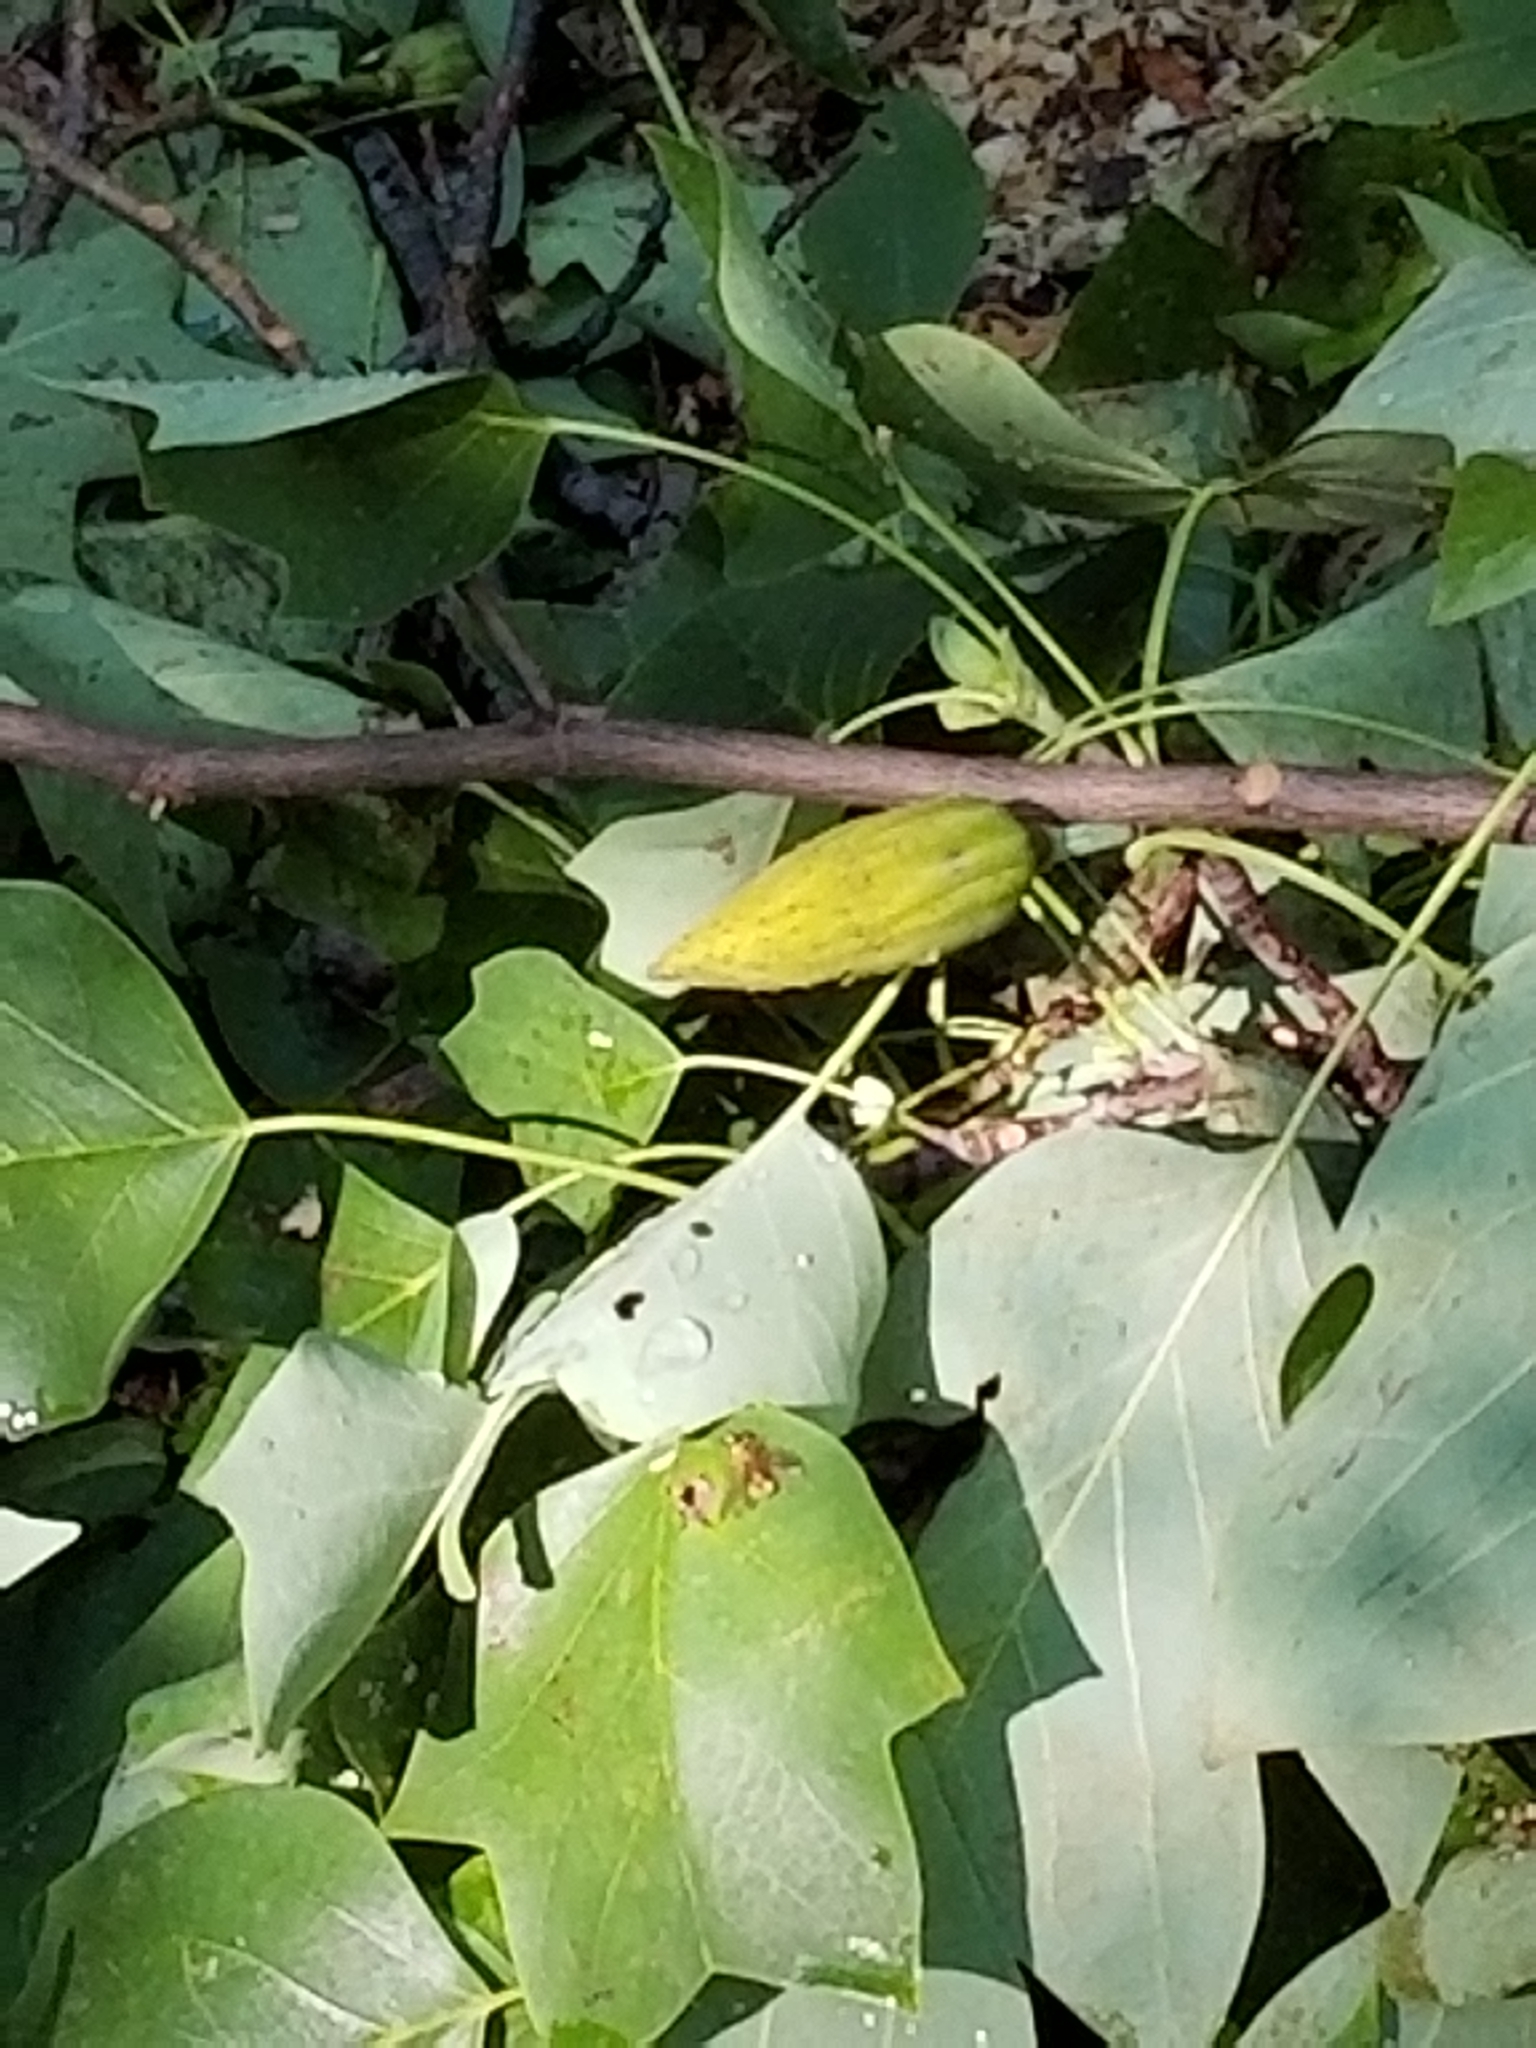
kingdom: Plantae
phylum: Tracheophyta
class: Magnoliopsida
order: Magnoliales
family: Magnoliaceae
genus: Liriodendron
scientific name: Liriodendron tulipifera
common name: Tulip tree
